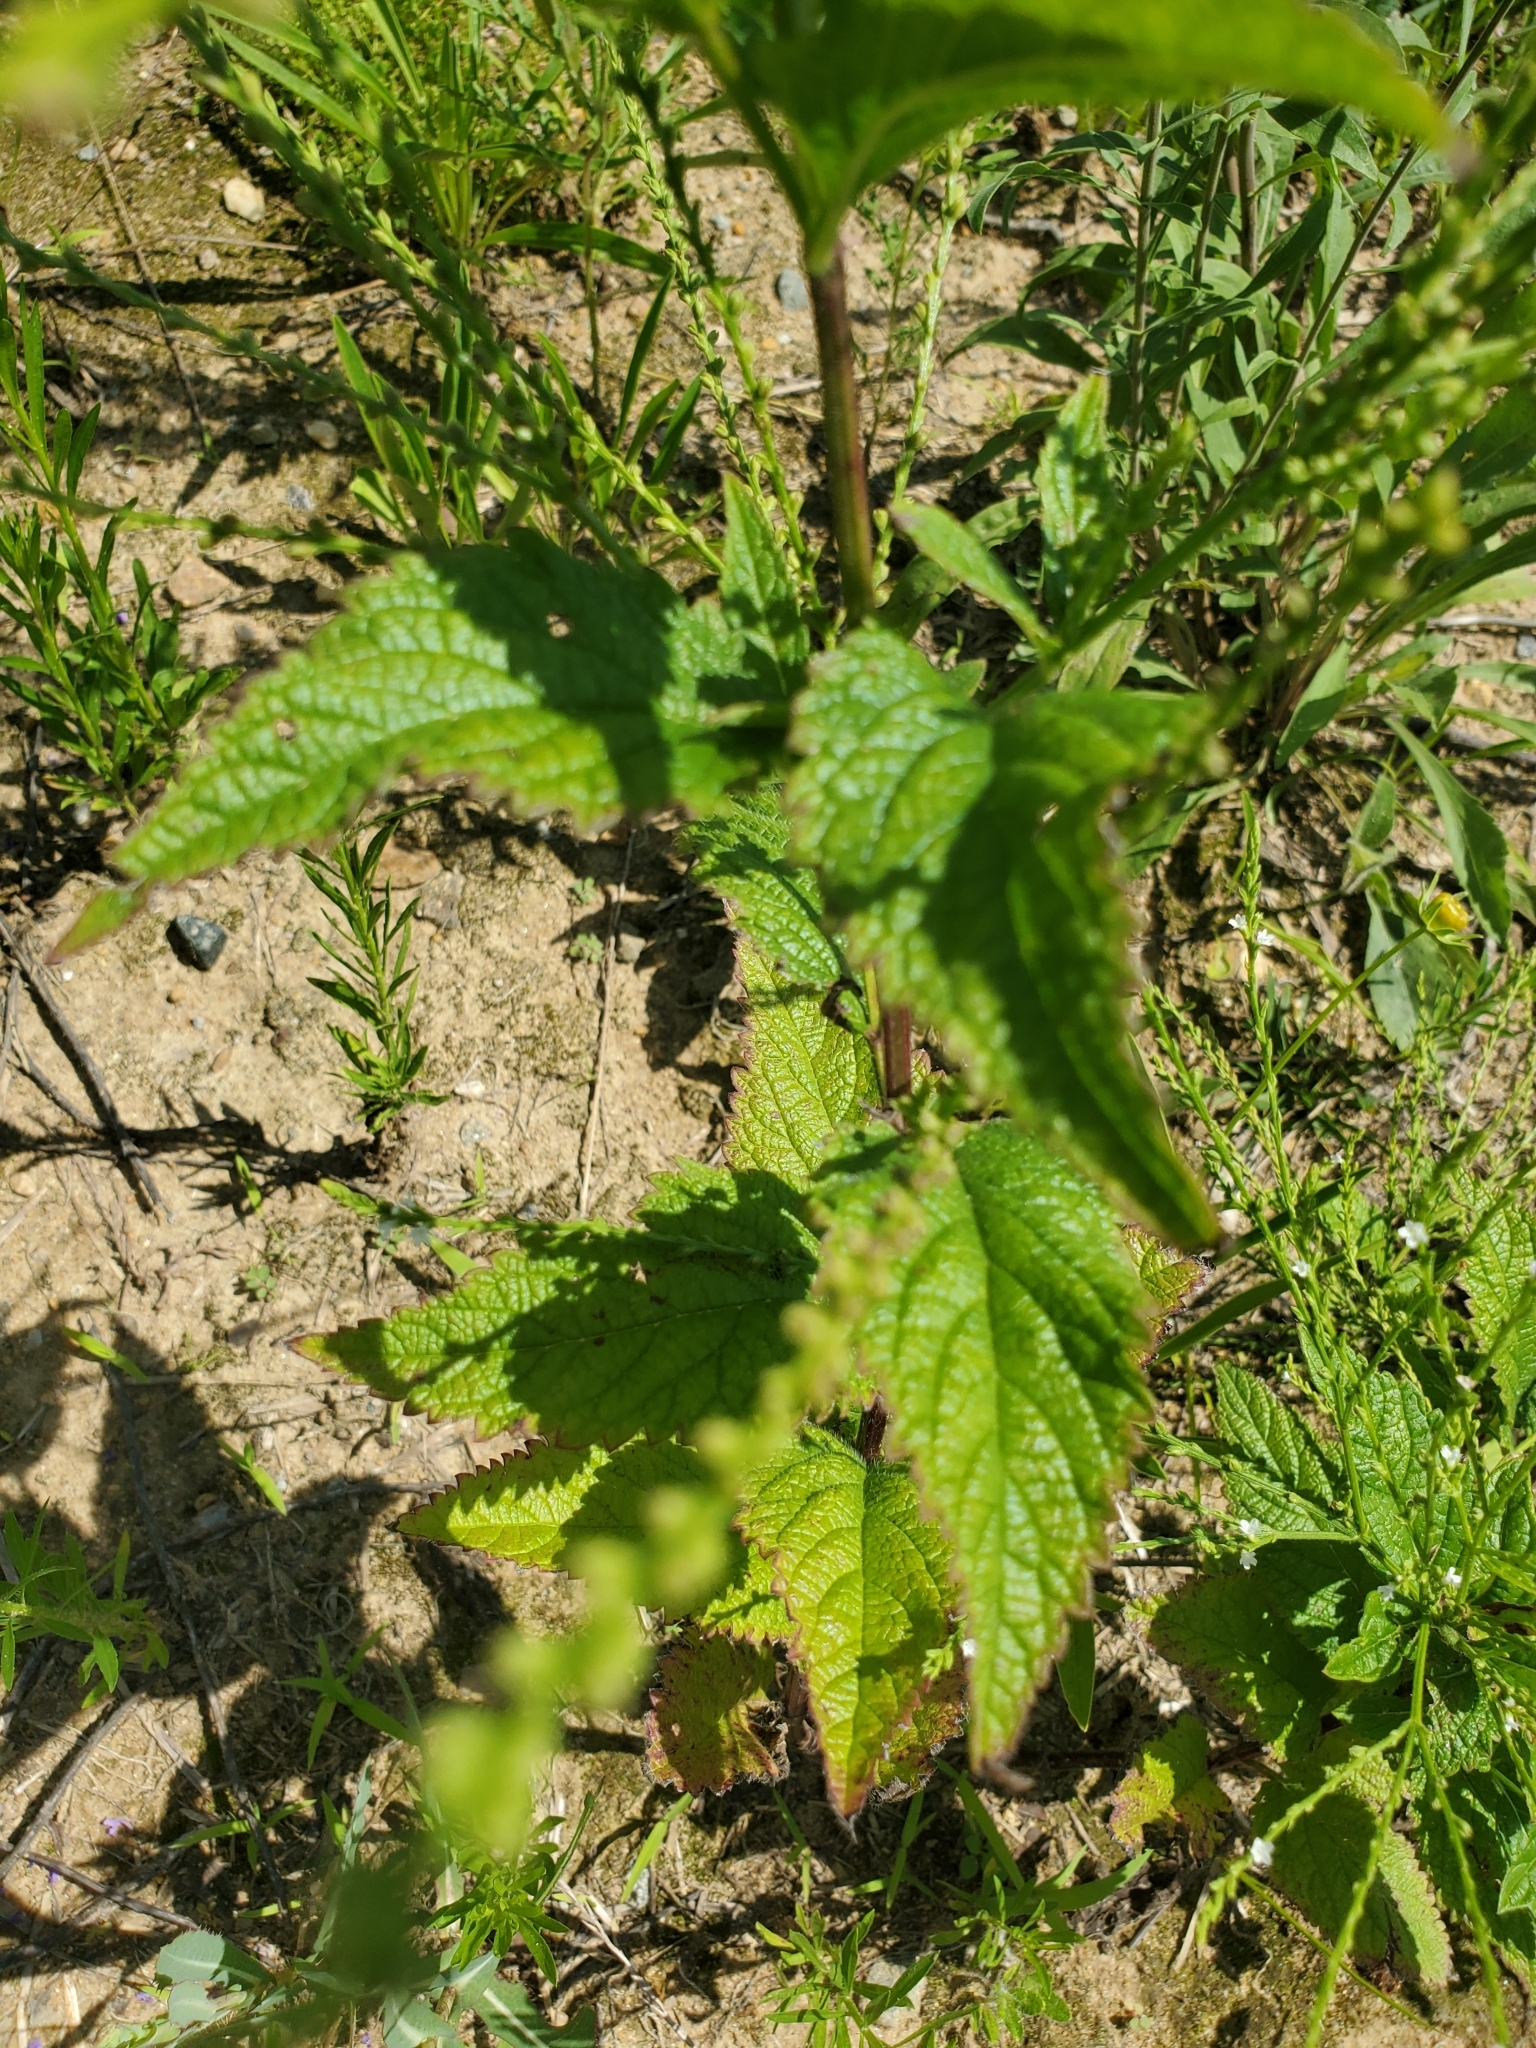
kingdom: Plantae
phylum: Tracheophyta
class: Magnoliopsida
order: Lamiales
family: Verbenaceae
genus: Verbena
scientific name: Verbena urticifolia
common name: Nettle-leaved vervain
